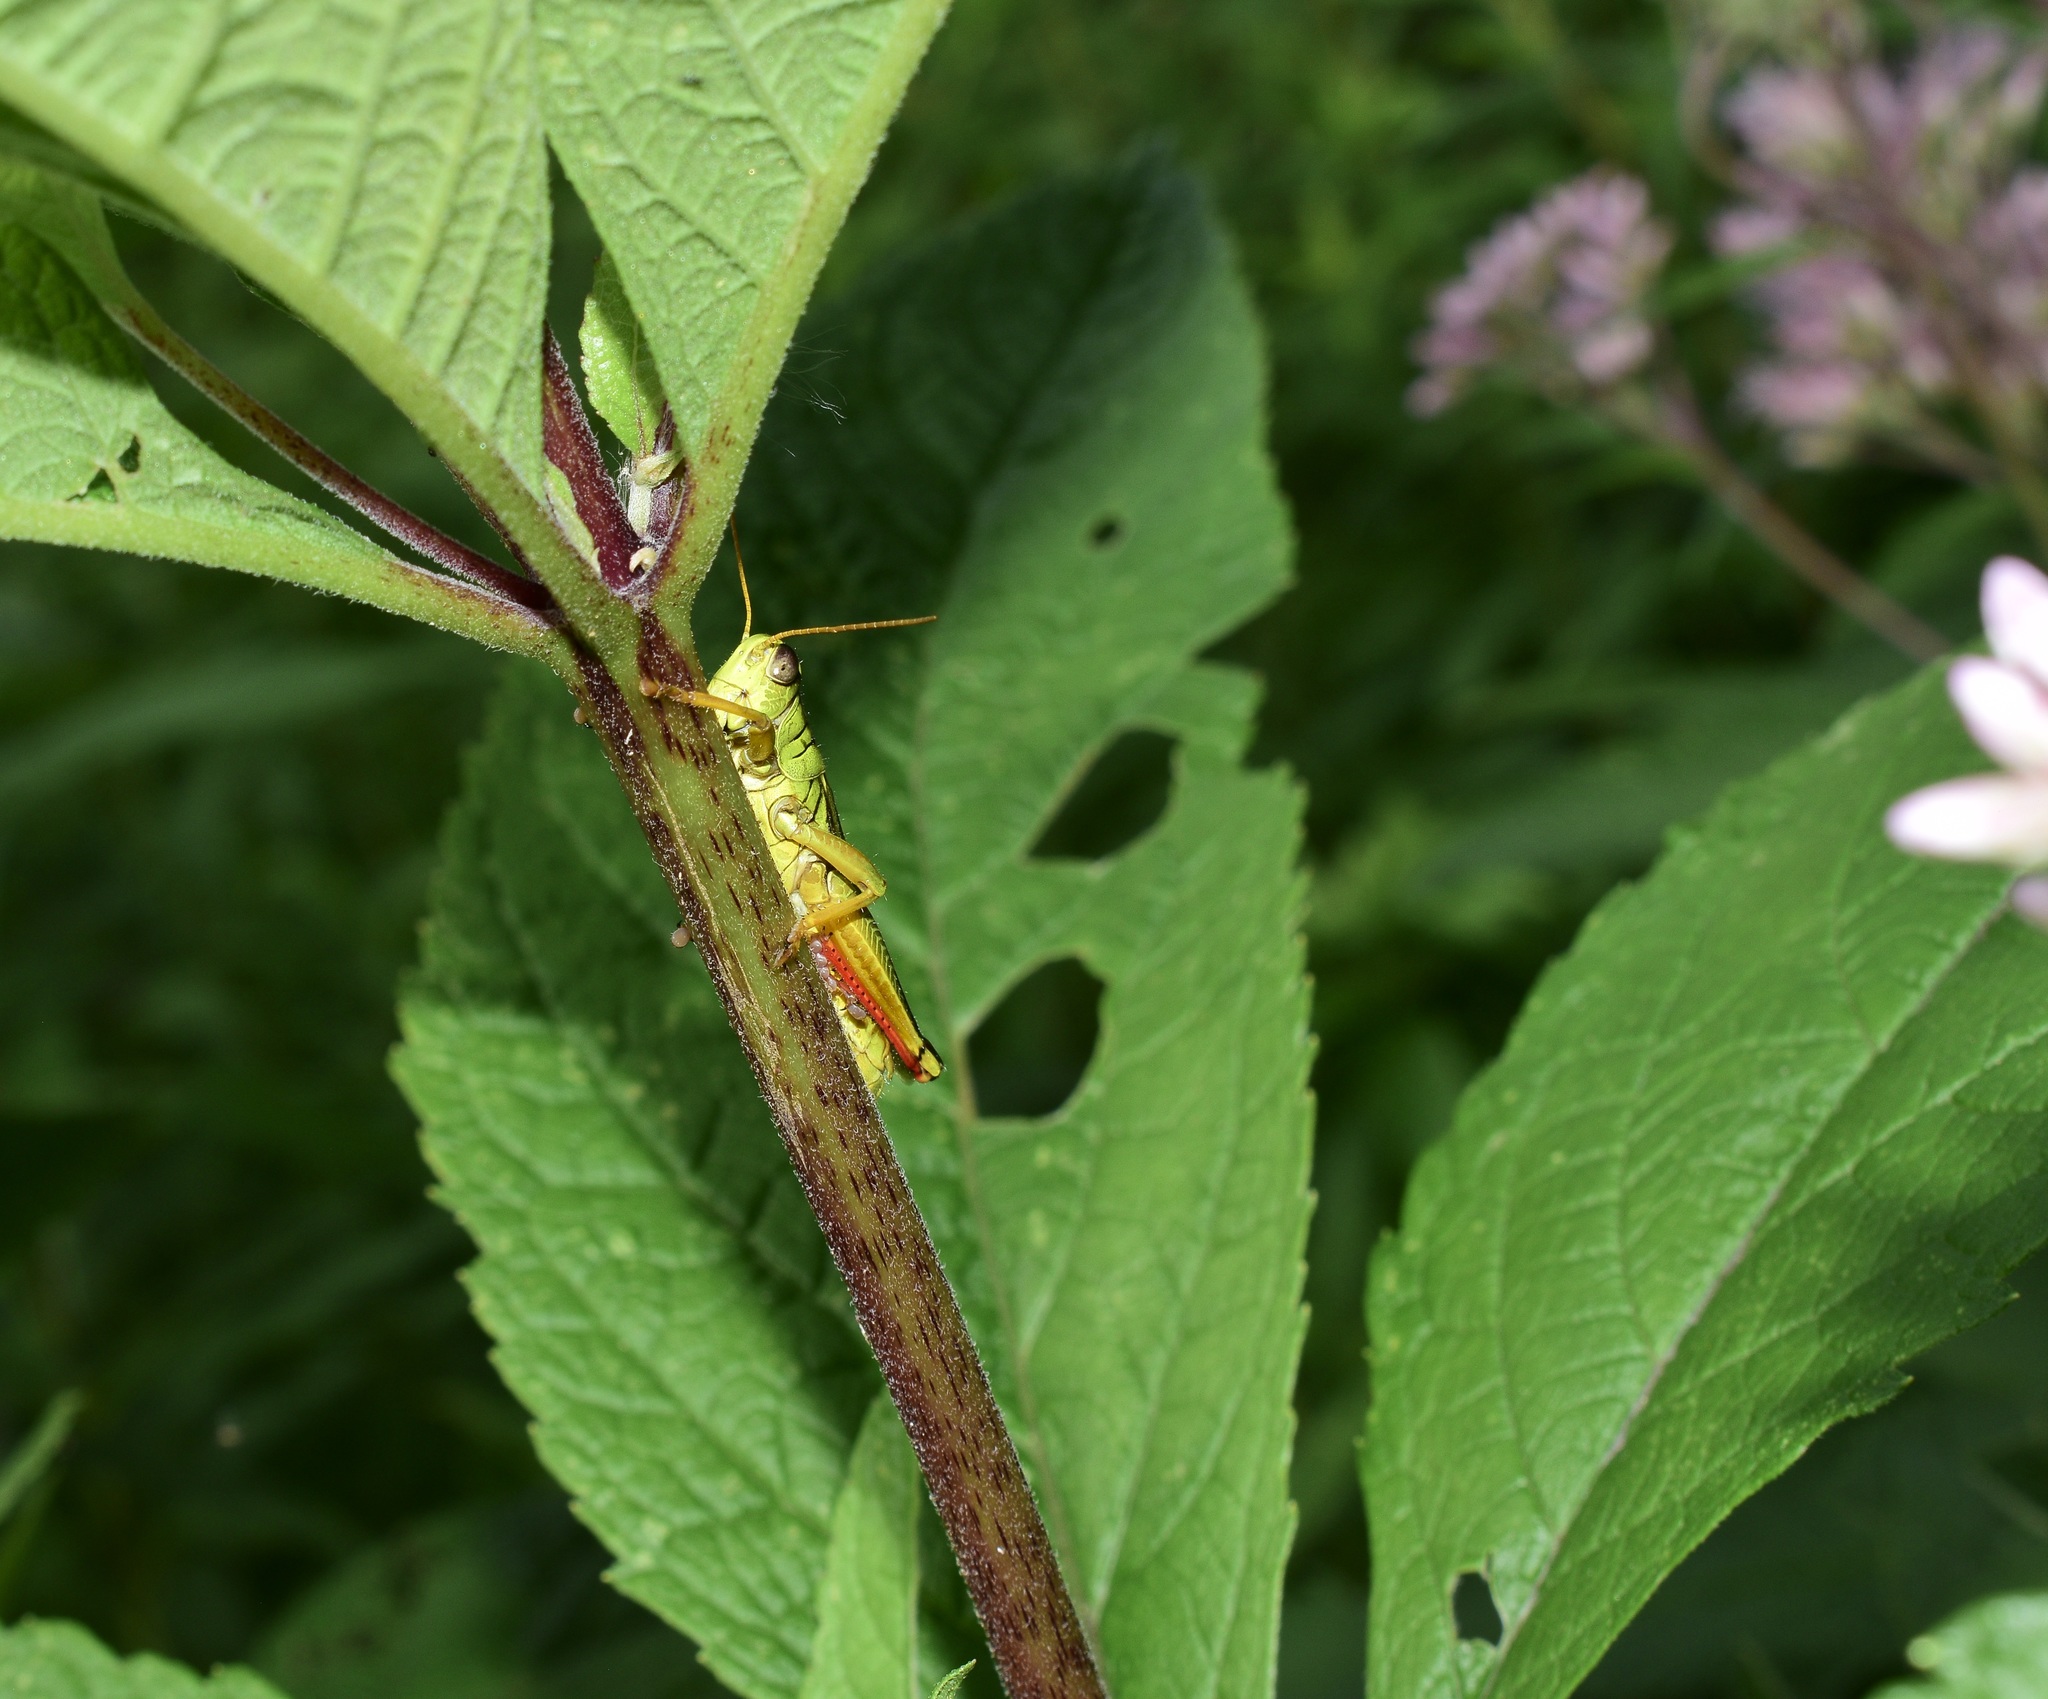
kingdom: Animalia
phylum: Arthropoda
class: Insecta
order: Orthoptera
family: Acrididae
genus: Melanoplus
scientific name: Melanoplus bivittatus
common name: Two-striped grasshopper
